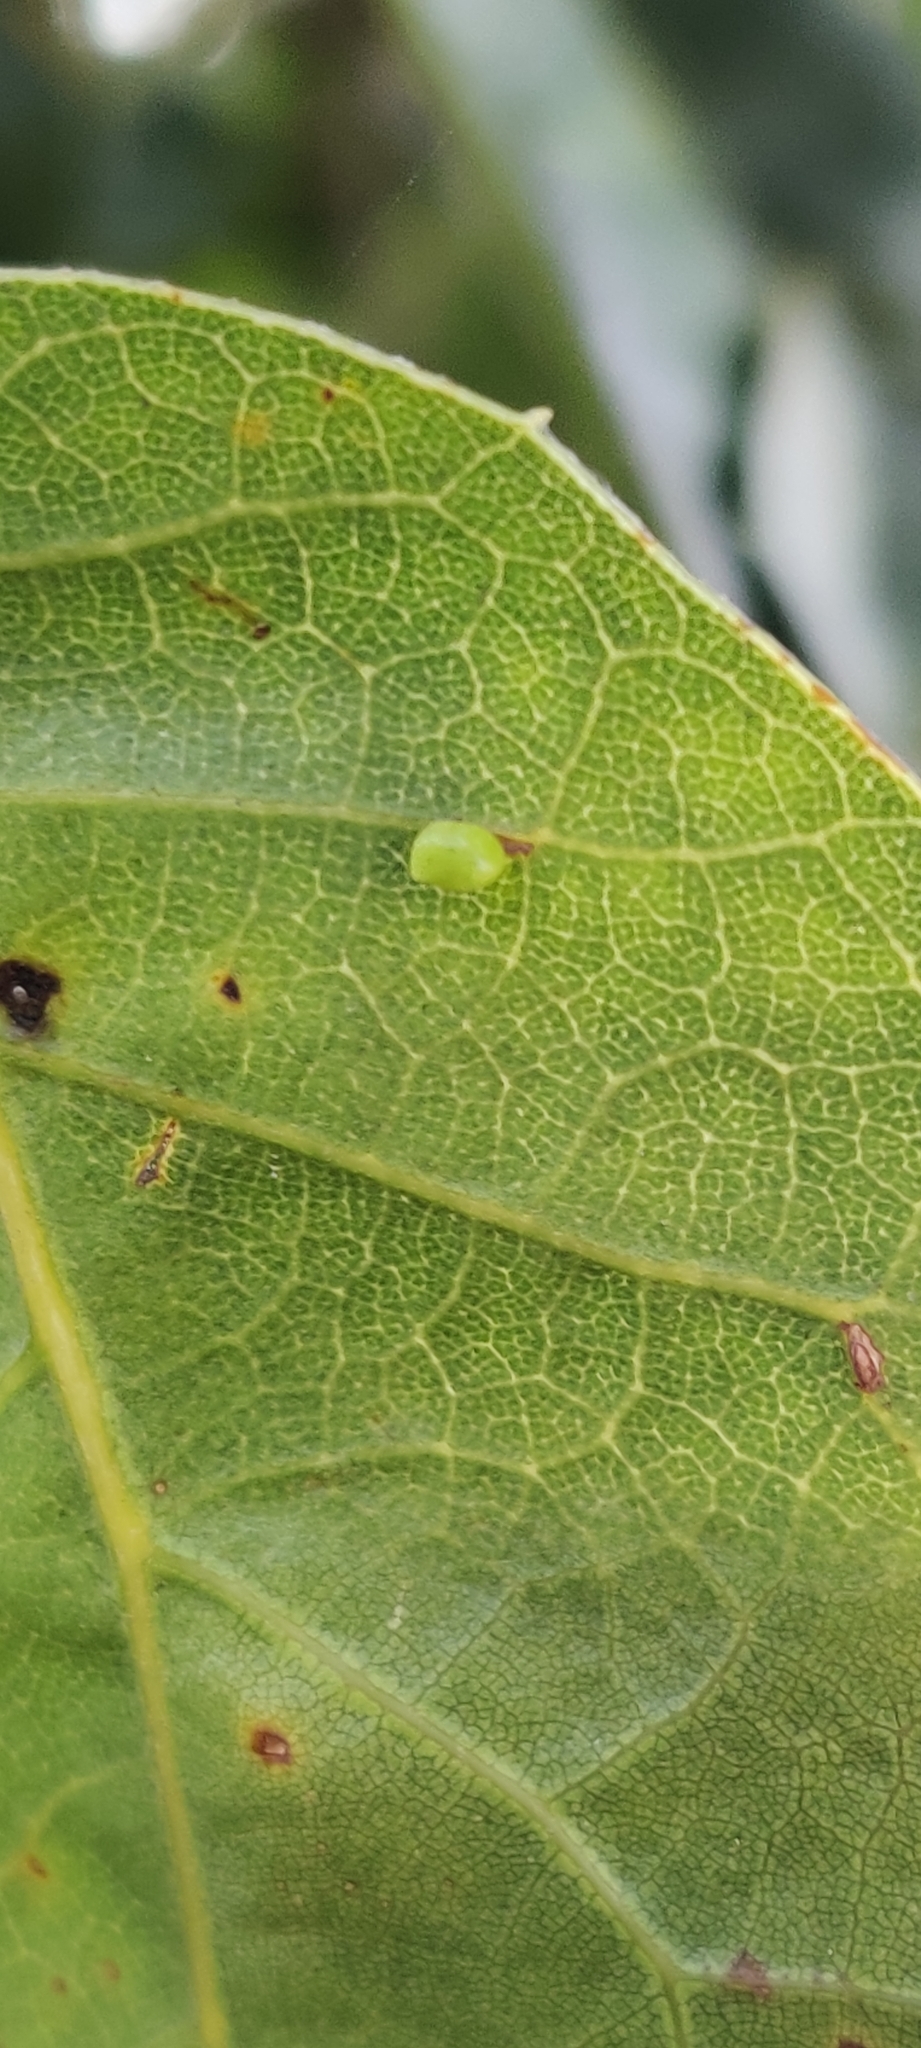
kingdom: Animalia
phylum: Arthropoda
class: Insecta
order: Hymenoptera
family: Cynipidae
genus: Dryocosmus
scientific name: Dryocosmus
